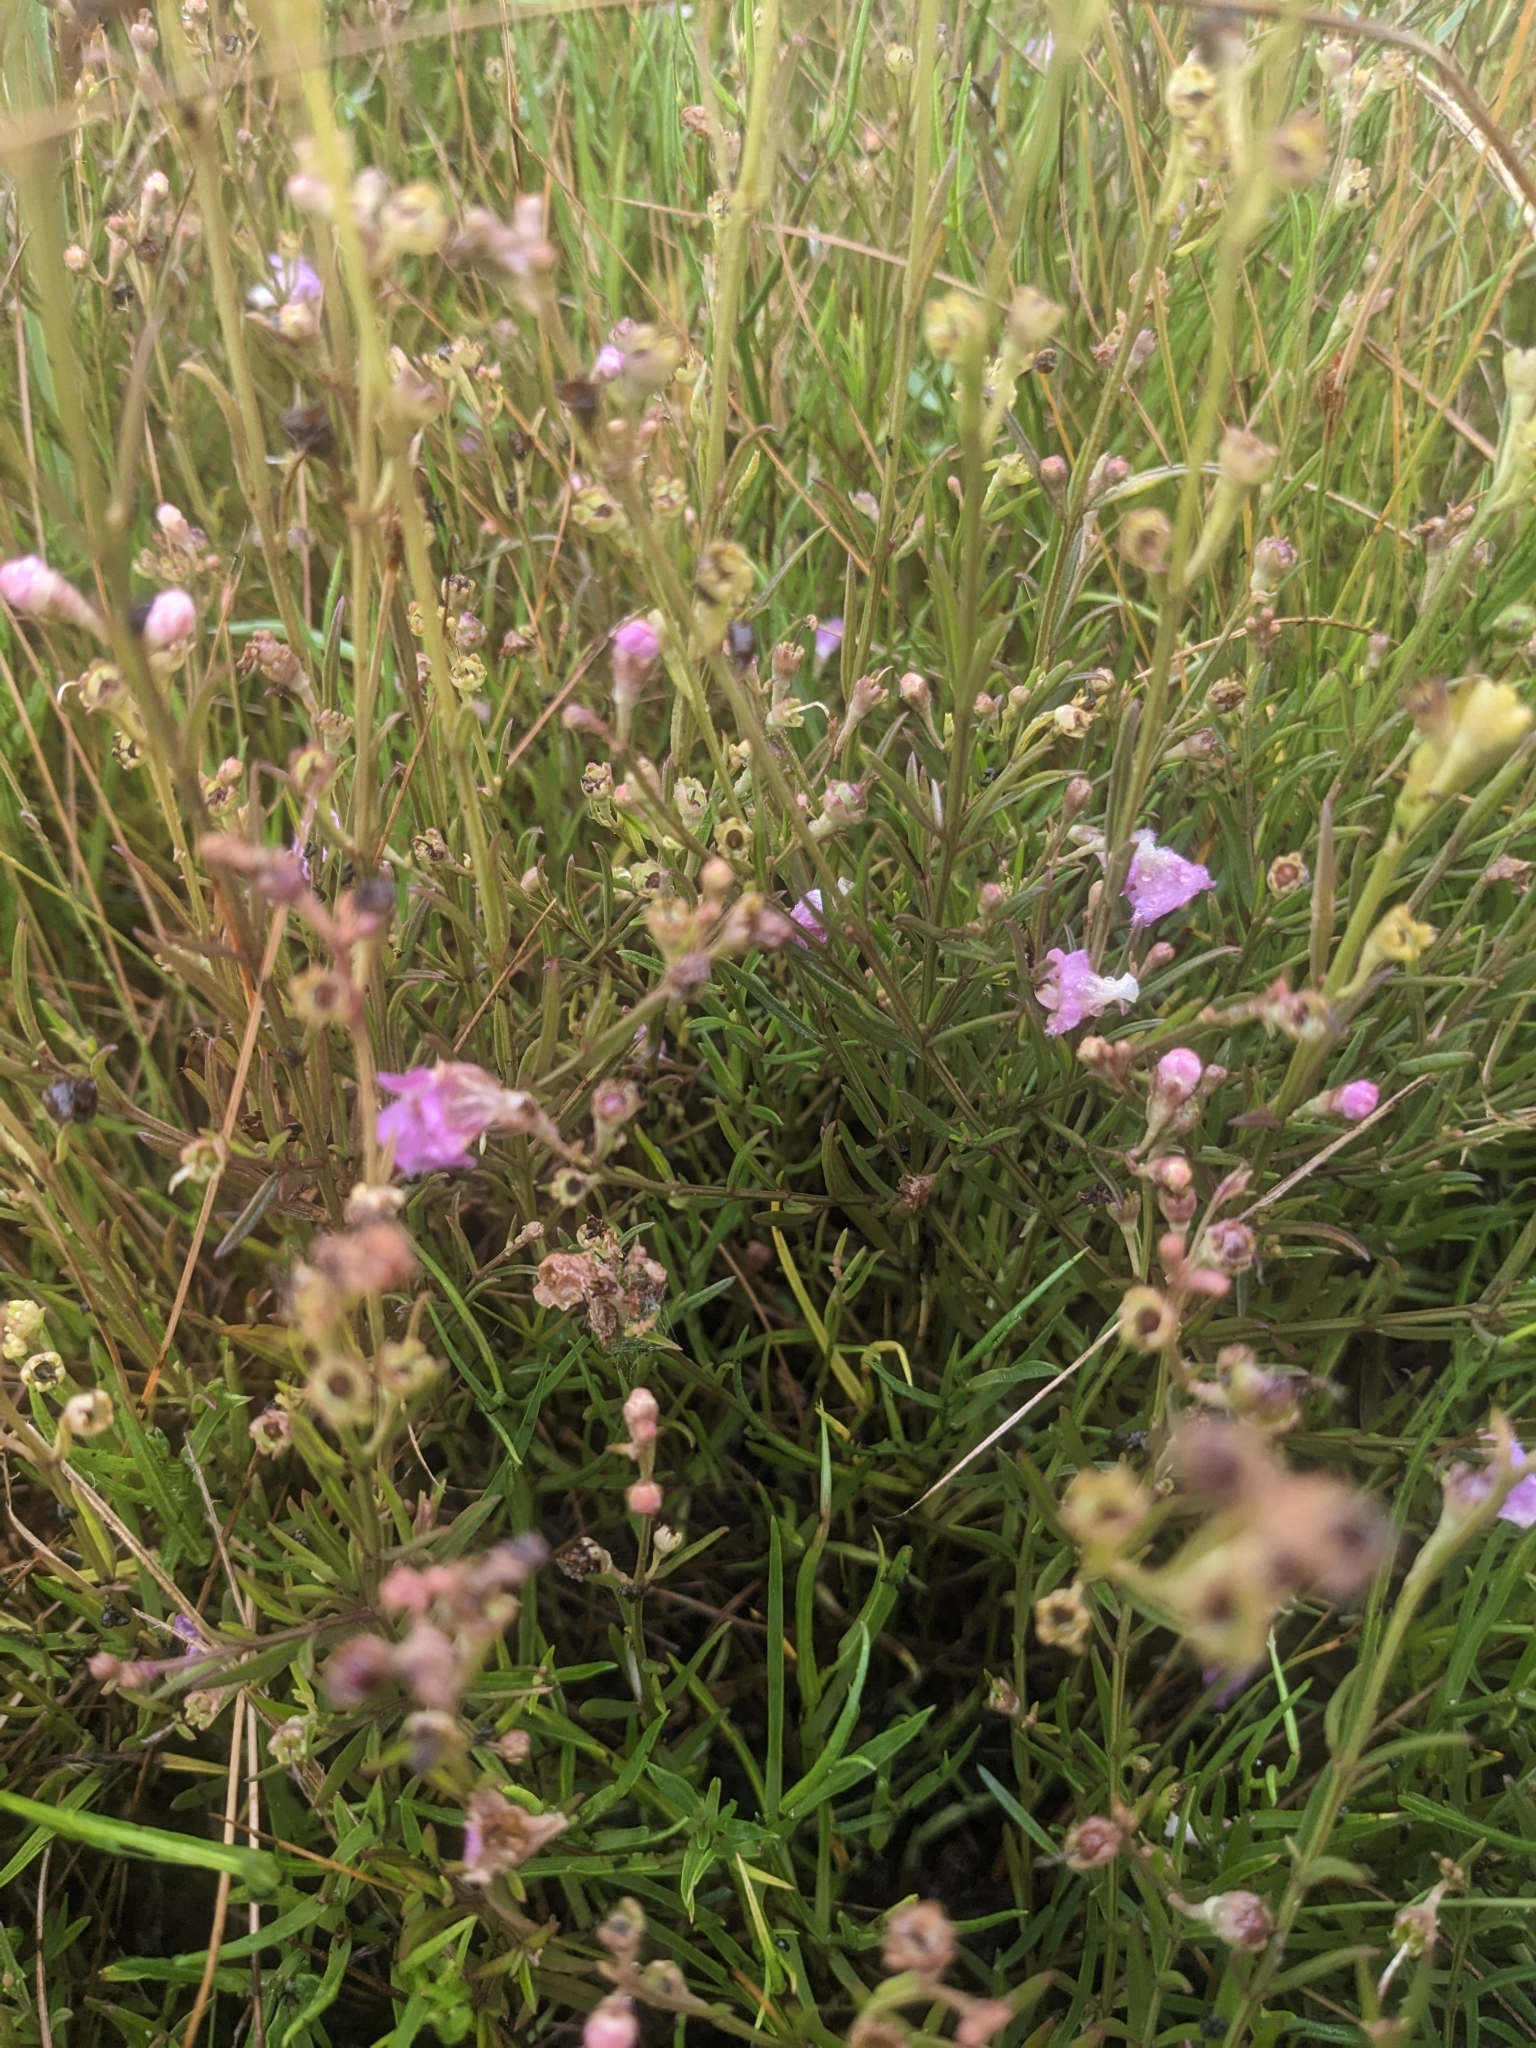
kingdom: Plantae
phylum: Tracheophyta
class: Magnoliopsida
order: Lamiales
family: Orobanchaceae
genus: Agalinis
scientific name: Agalinis maritima
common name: Saltmarsh agalinis
